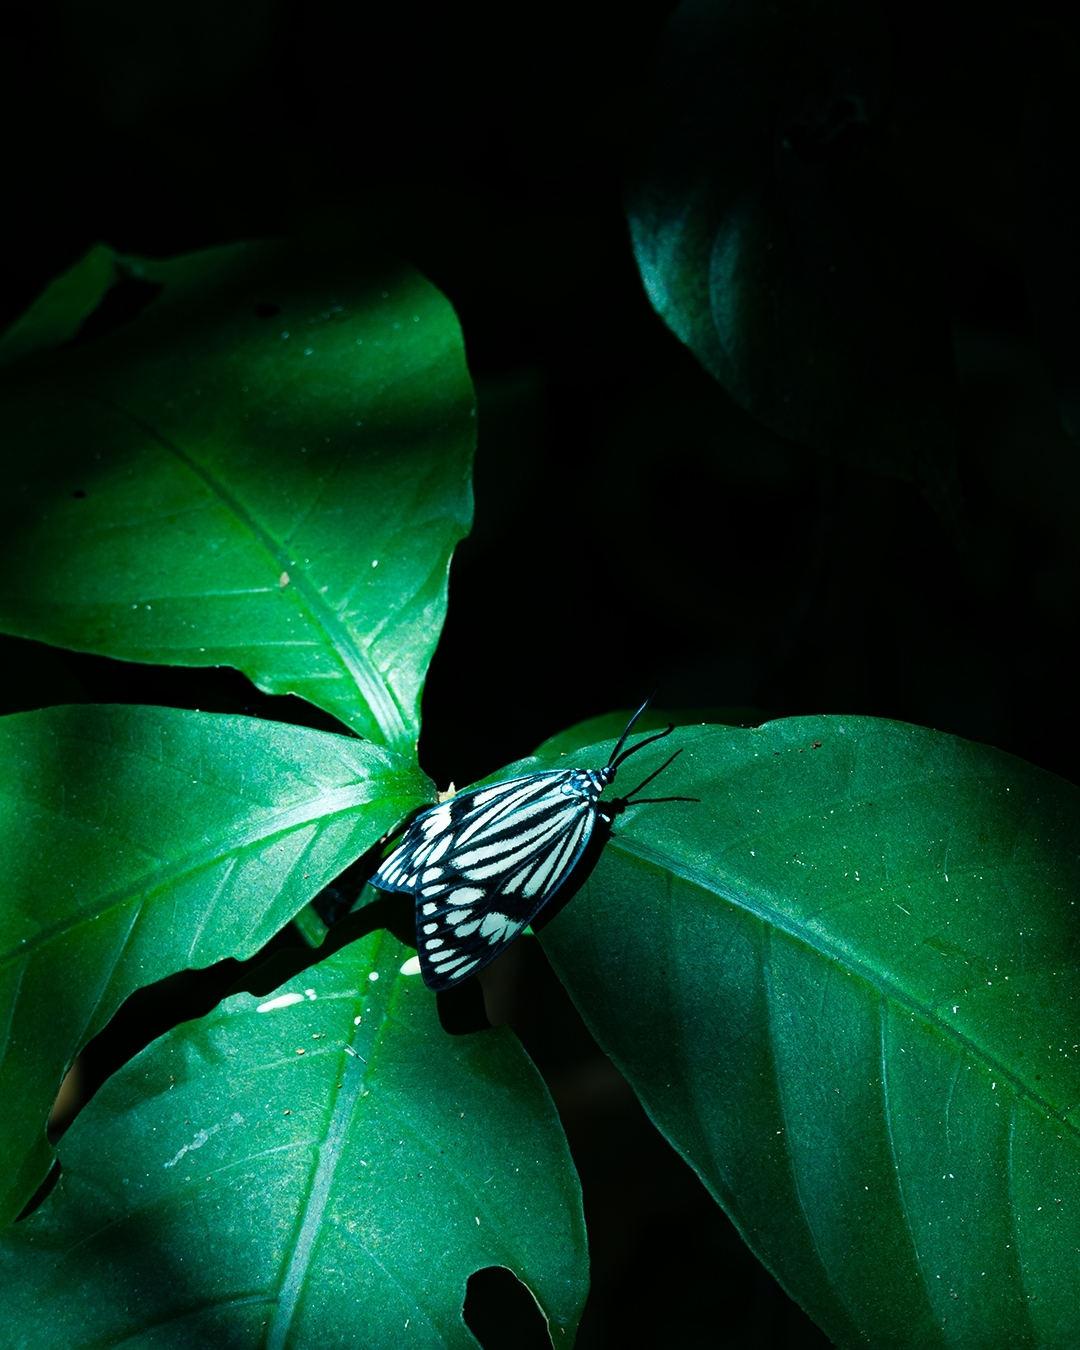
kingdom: Animalia
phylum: Arthropoda
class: Insecta
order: Lepidoptera
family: Zygaenidae
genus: Cyclosia
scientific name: Cyclosia
